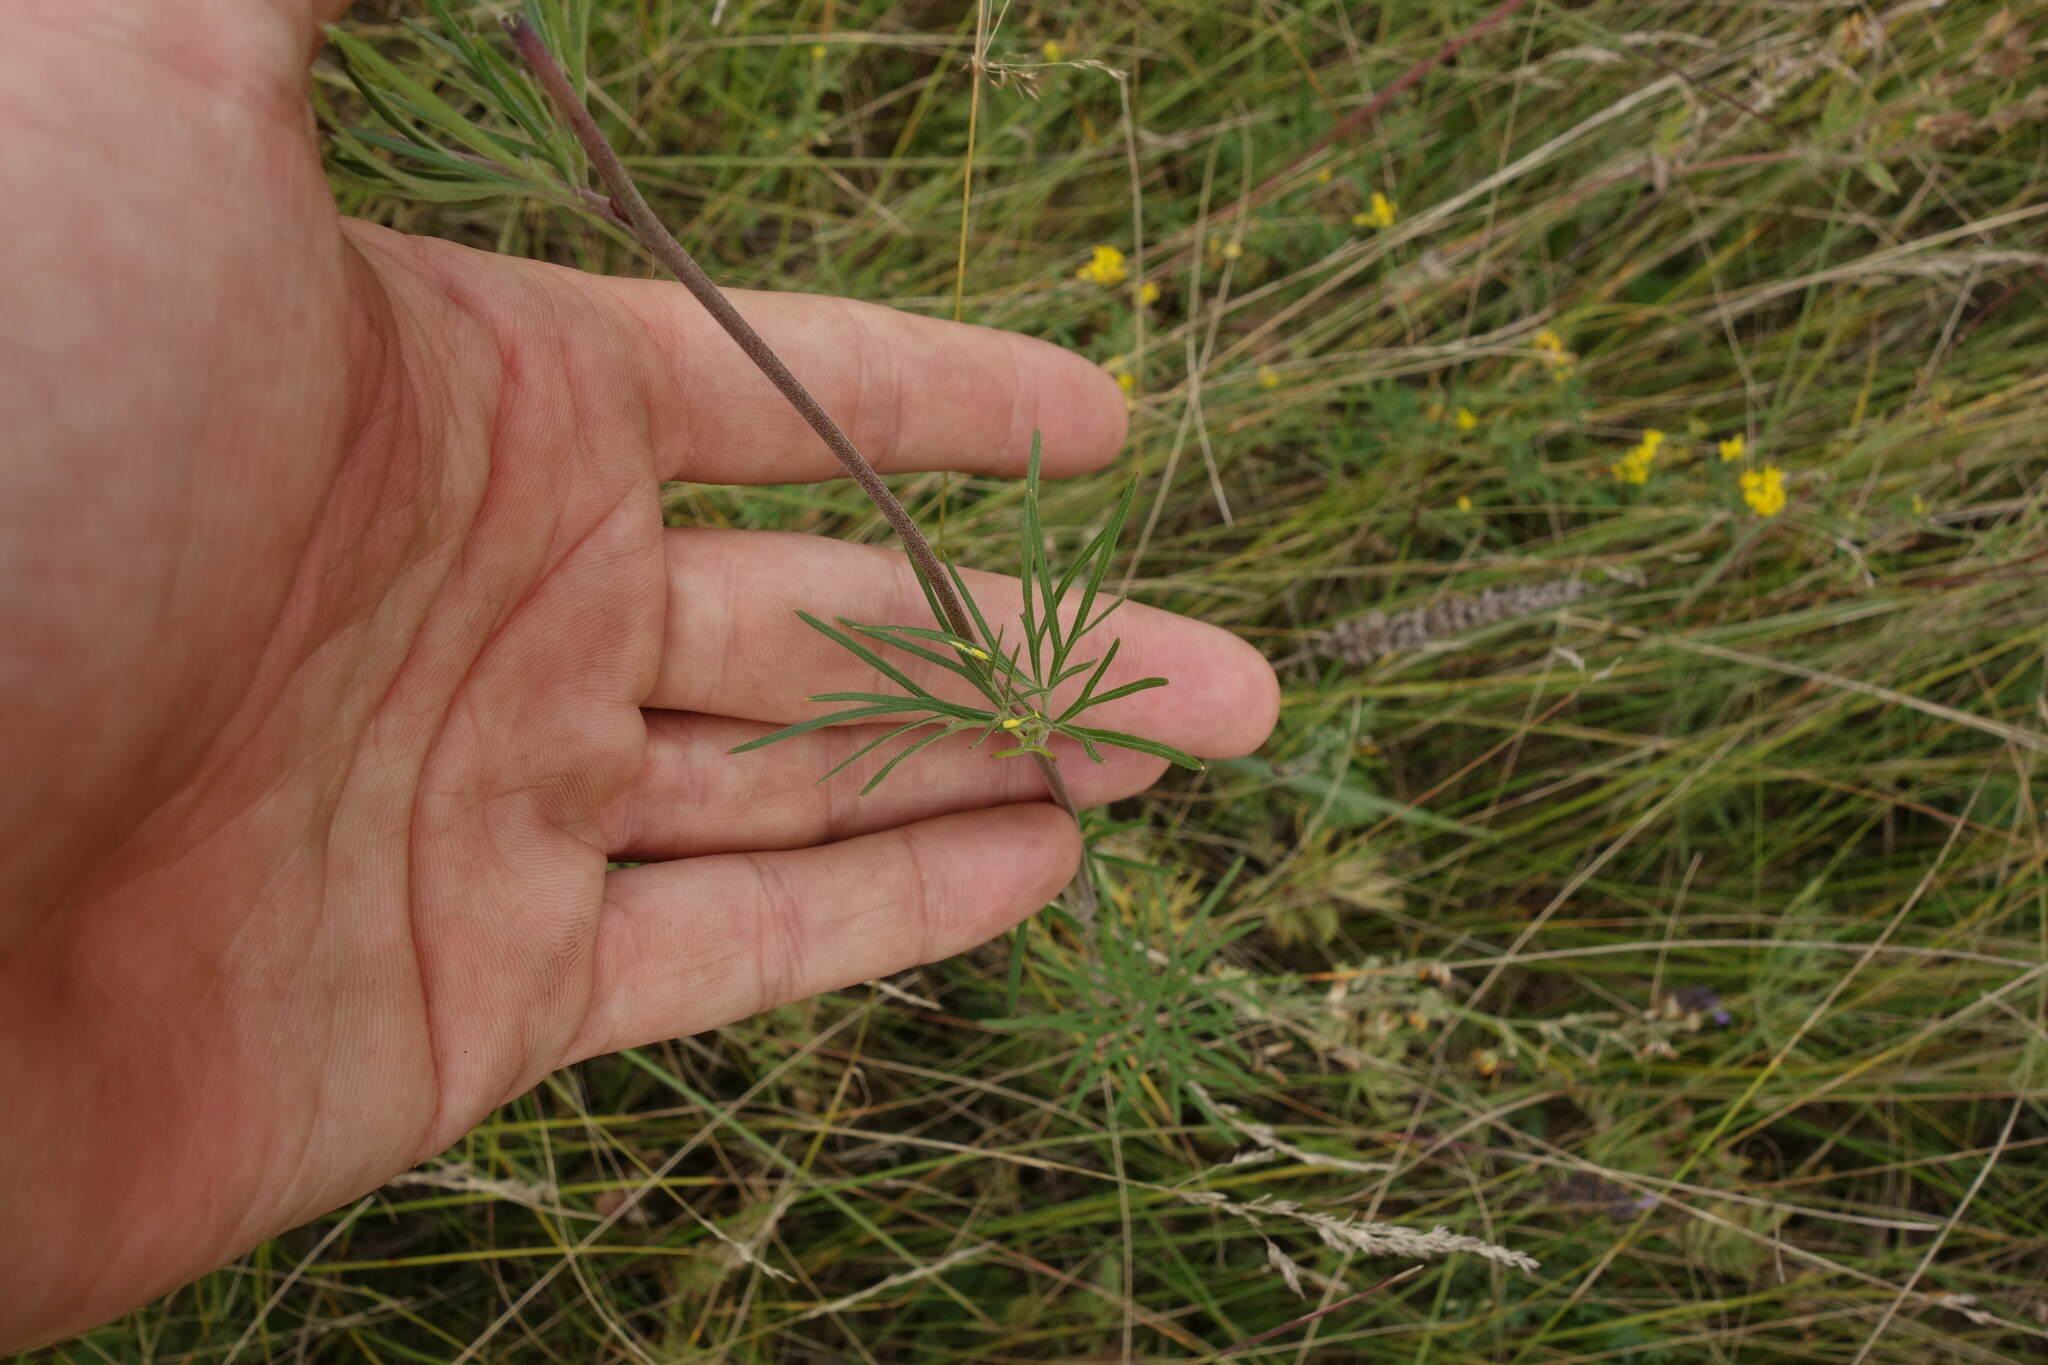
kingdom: Plantae
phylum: Tracheophyta
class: Magnoliopsida
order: Ranunculales
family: Ranunculaceae
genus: Delphinium
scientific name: Delphinium grandiflorum
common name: Siberian larkspur
